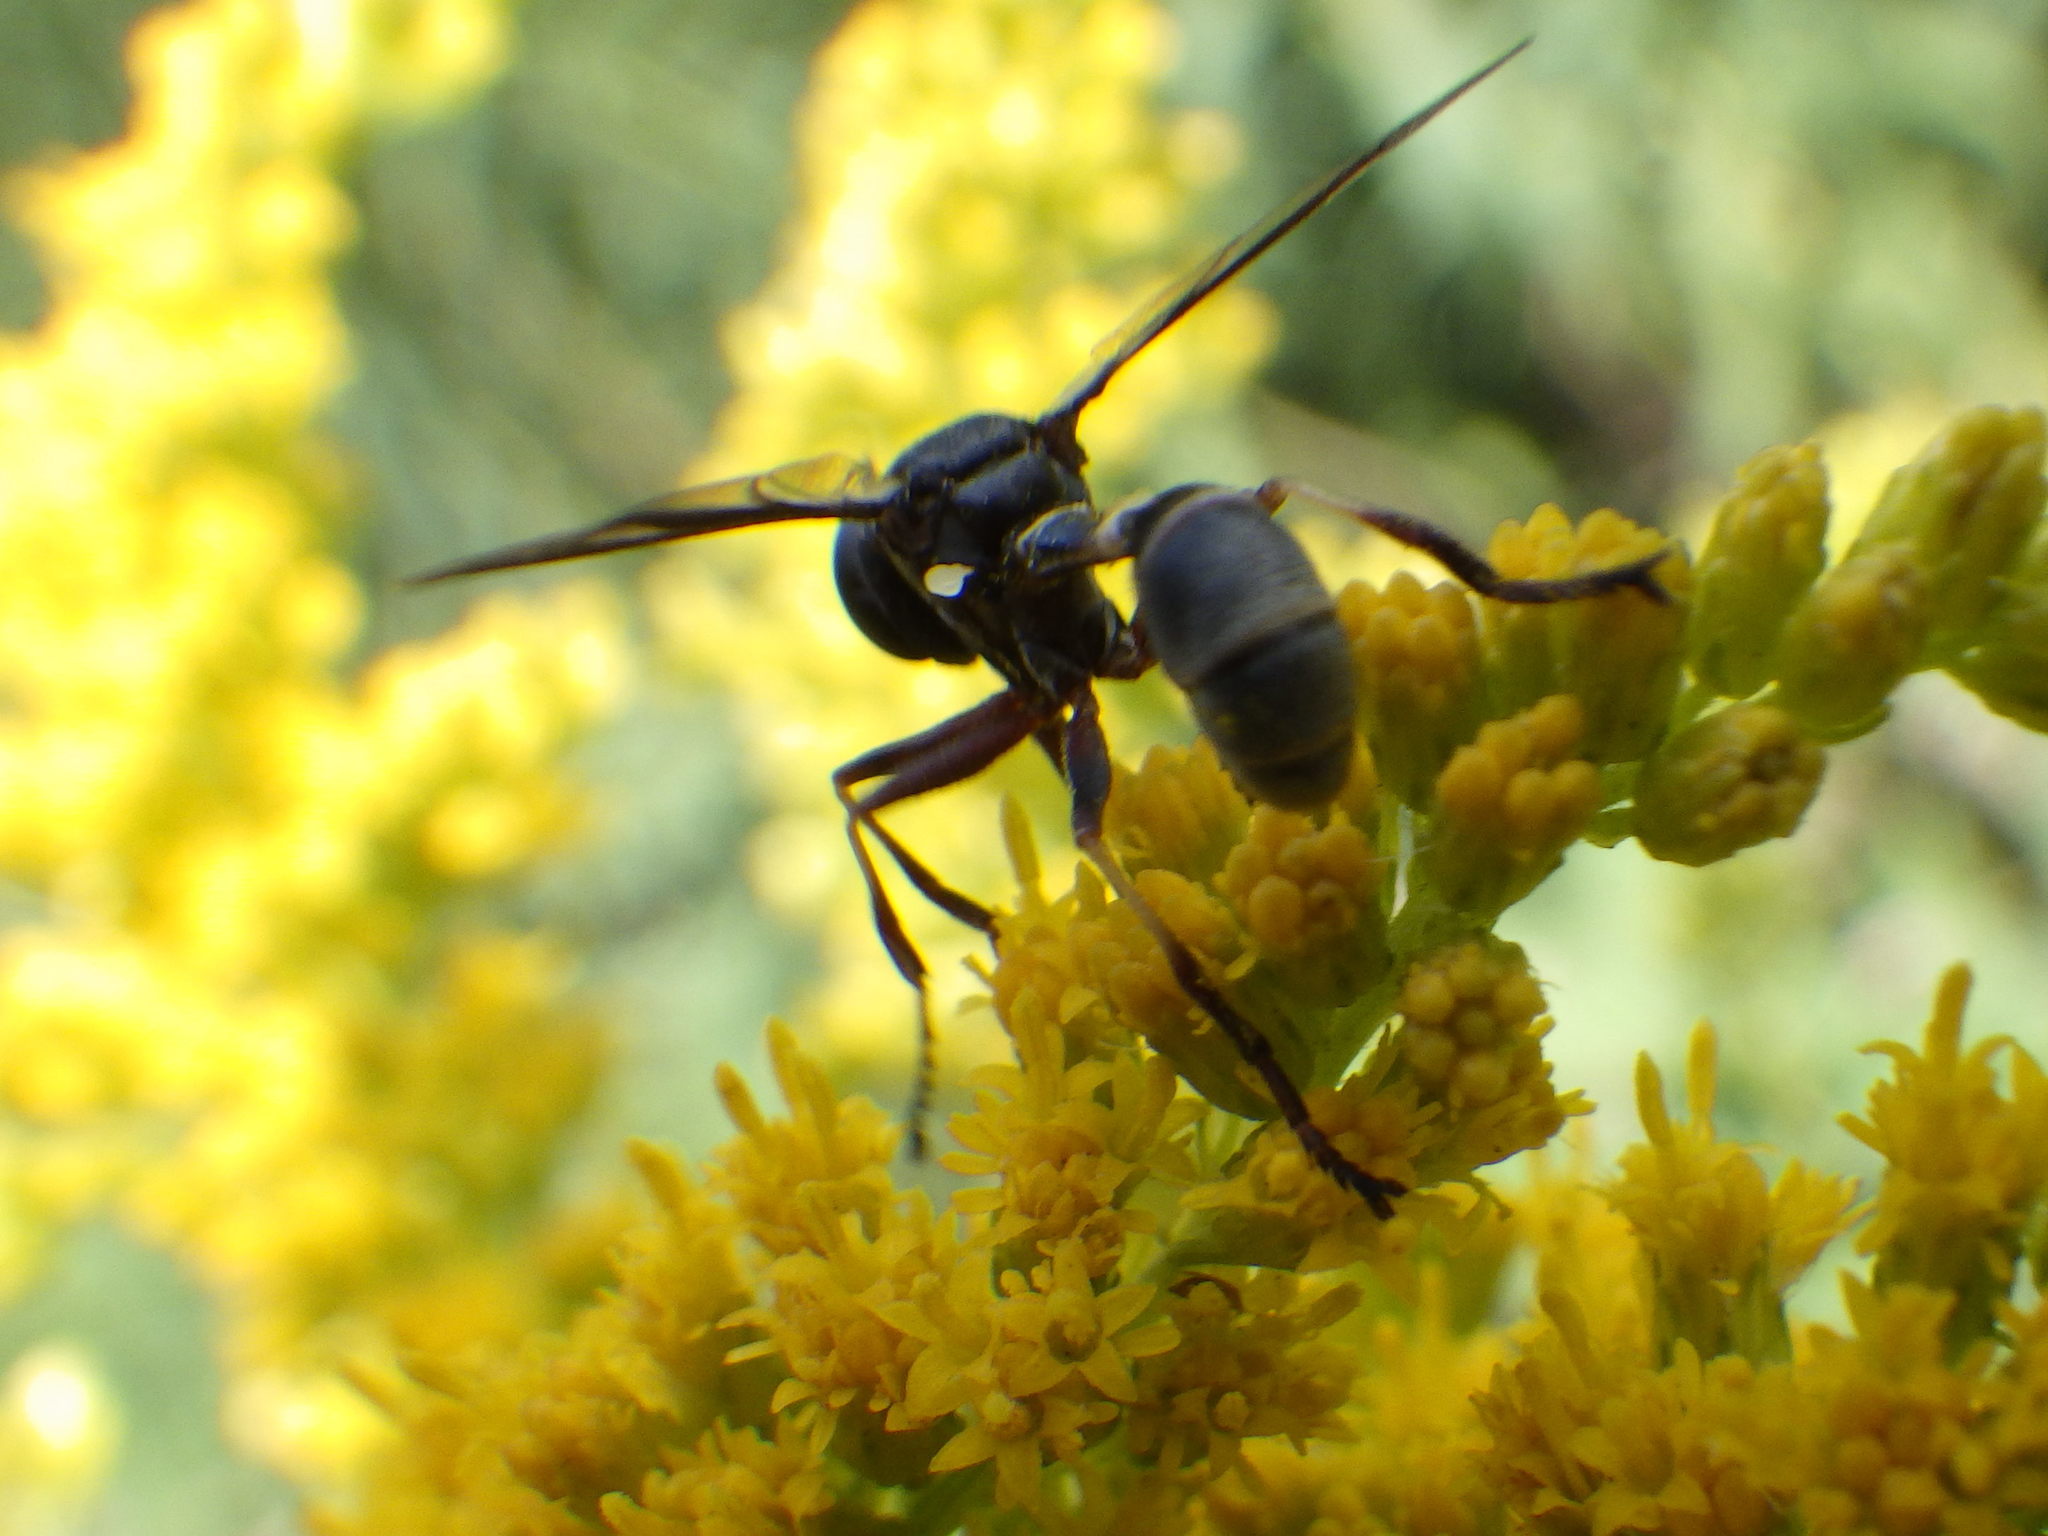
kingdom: Animalia
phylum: Arthropoda
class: Insecta
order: Diptera
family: Conopidae
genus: Physocephala
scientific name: Physocephala furcillata
